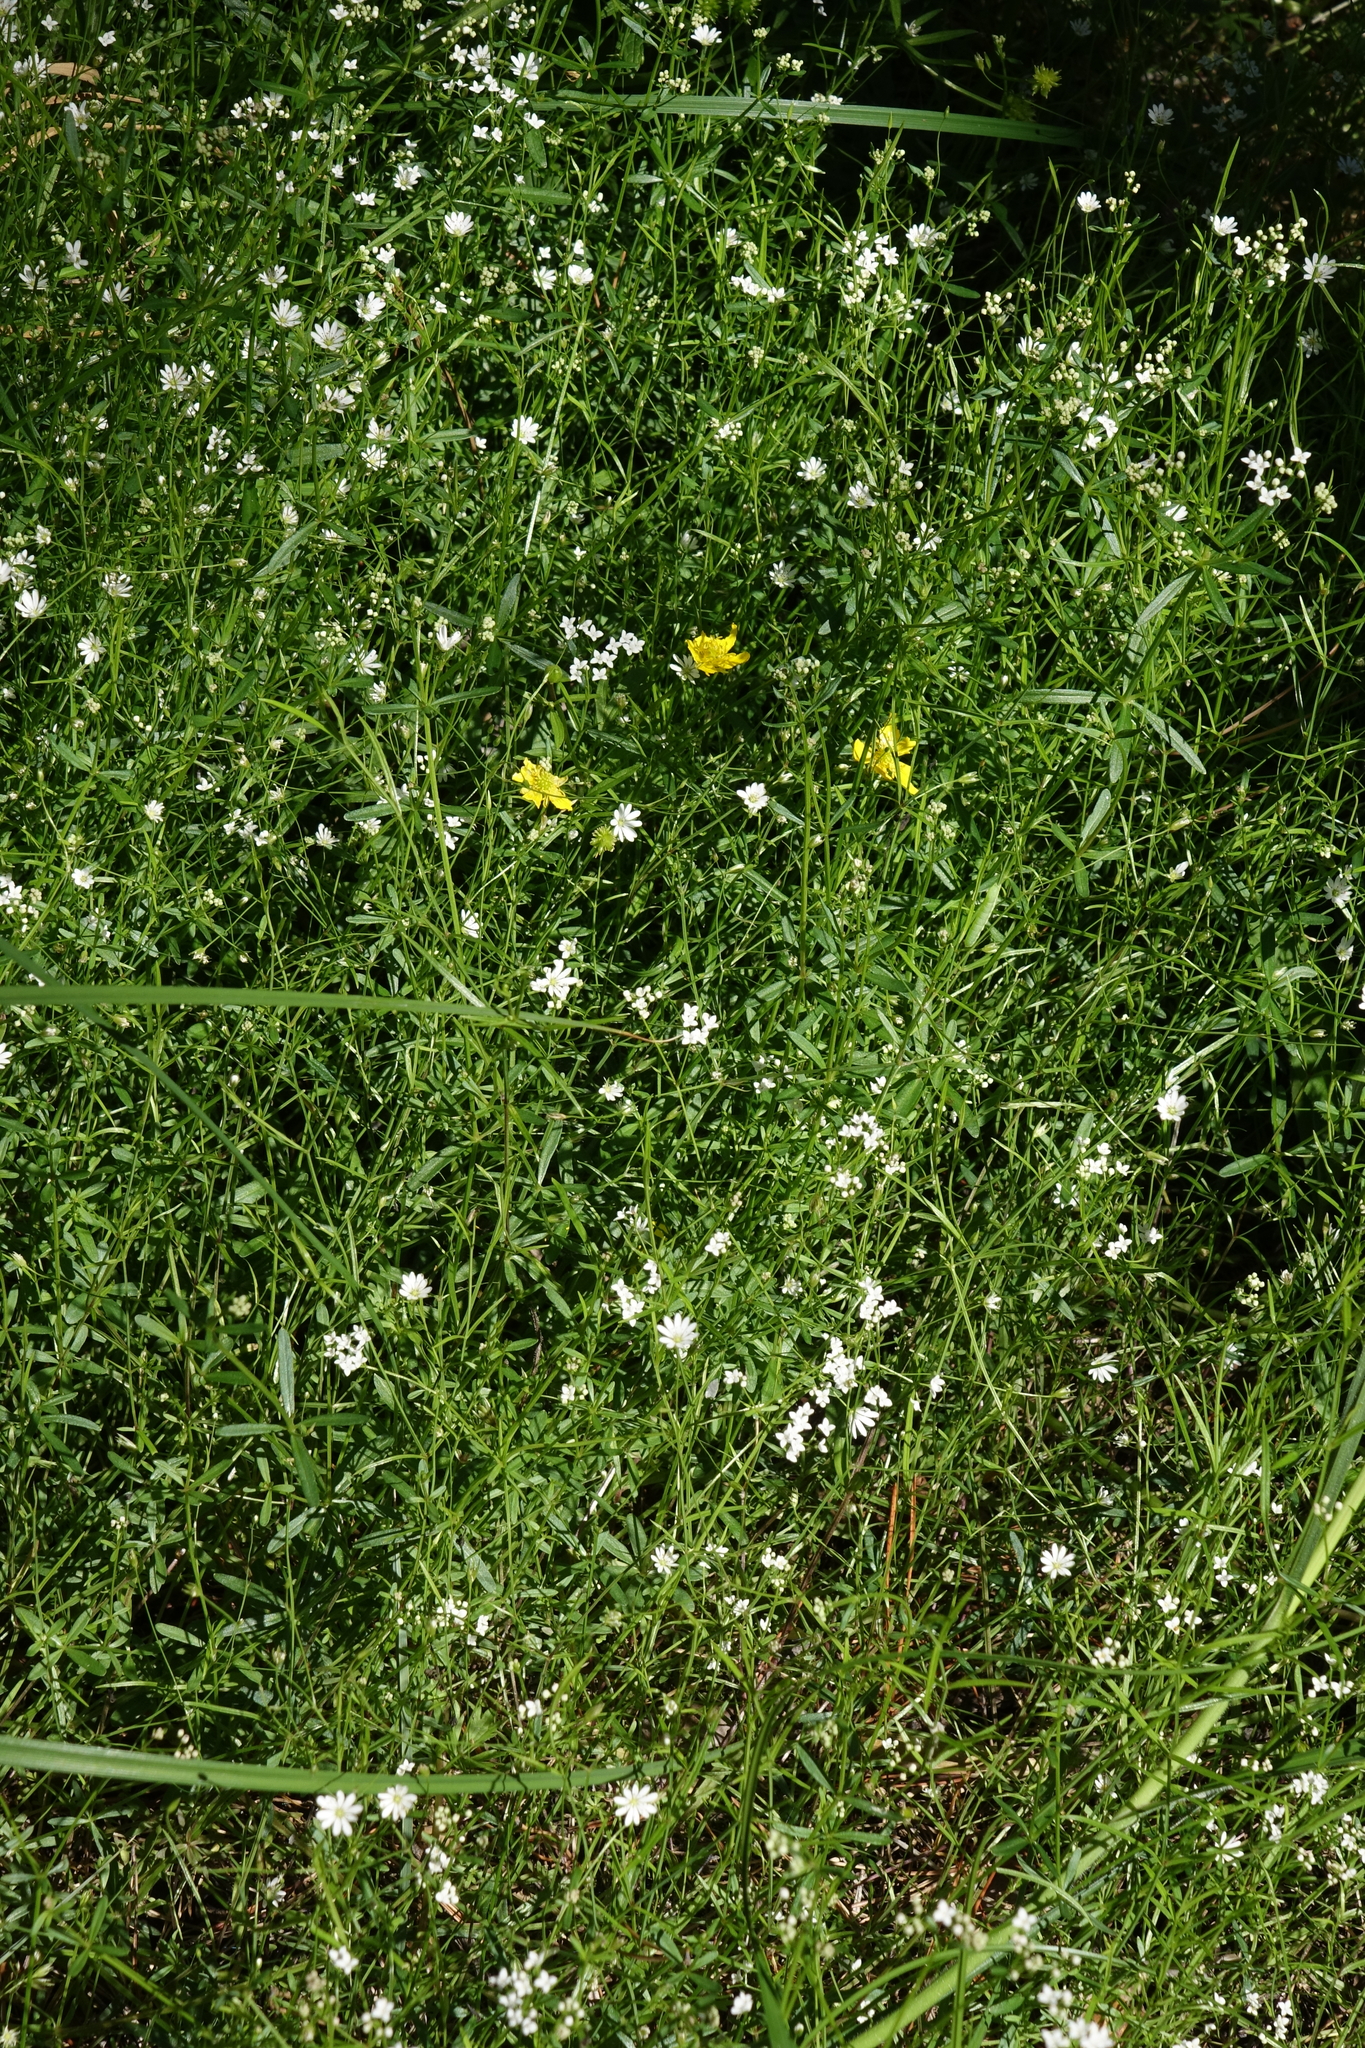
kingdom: Plantae
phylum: Tracheophyta
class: Magnoliopsida
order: Caryophyllales
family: Caryophyllaceae
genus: Stellaria
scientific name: Stellaria graminea
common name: Grass-like starwort
